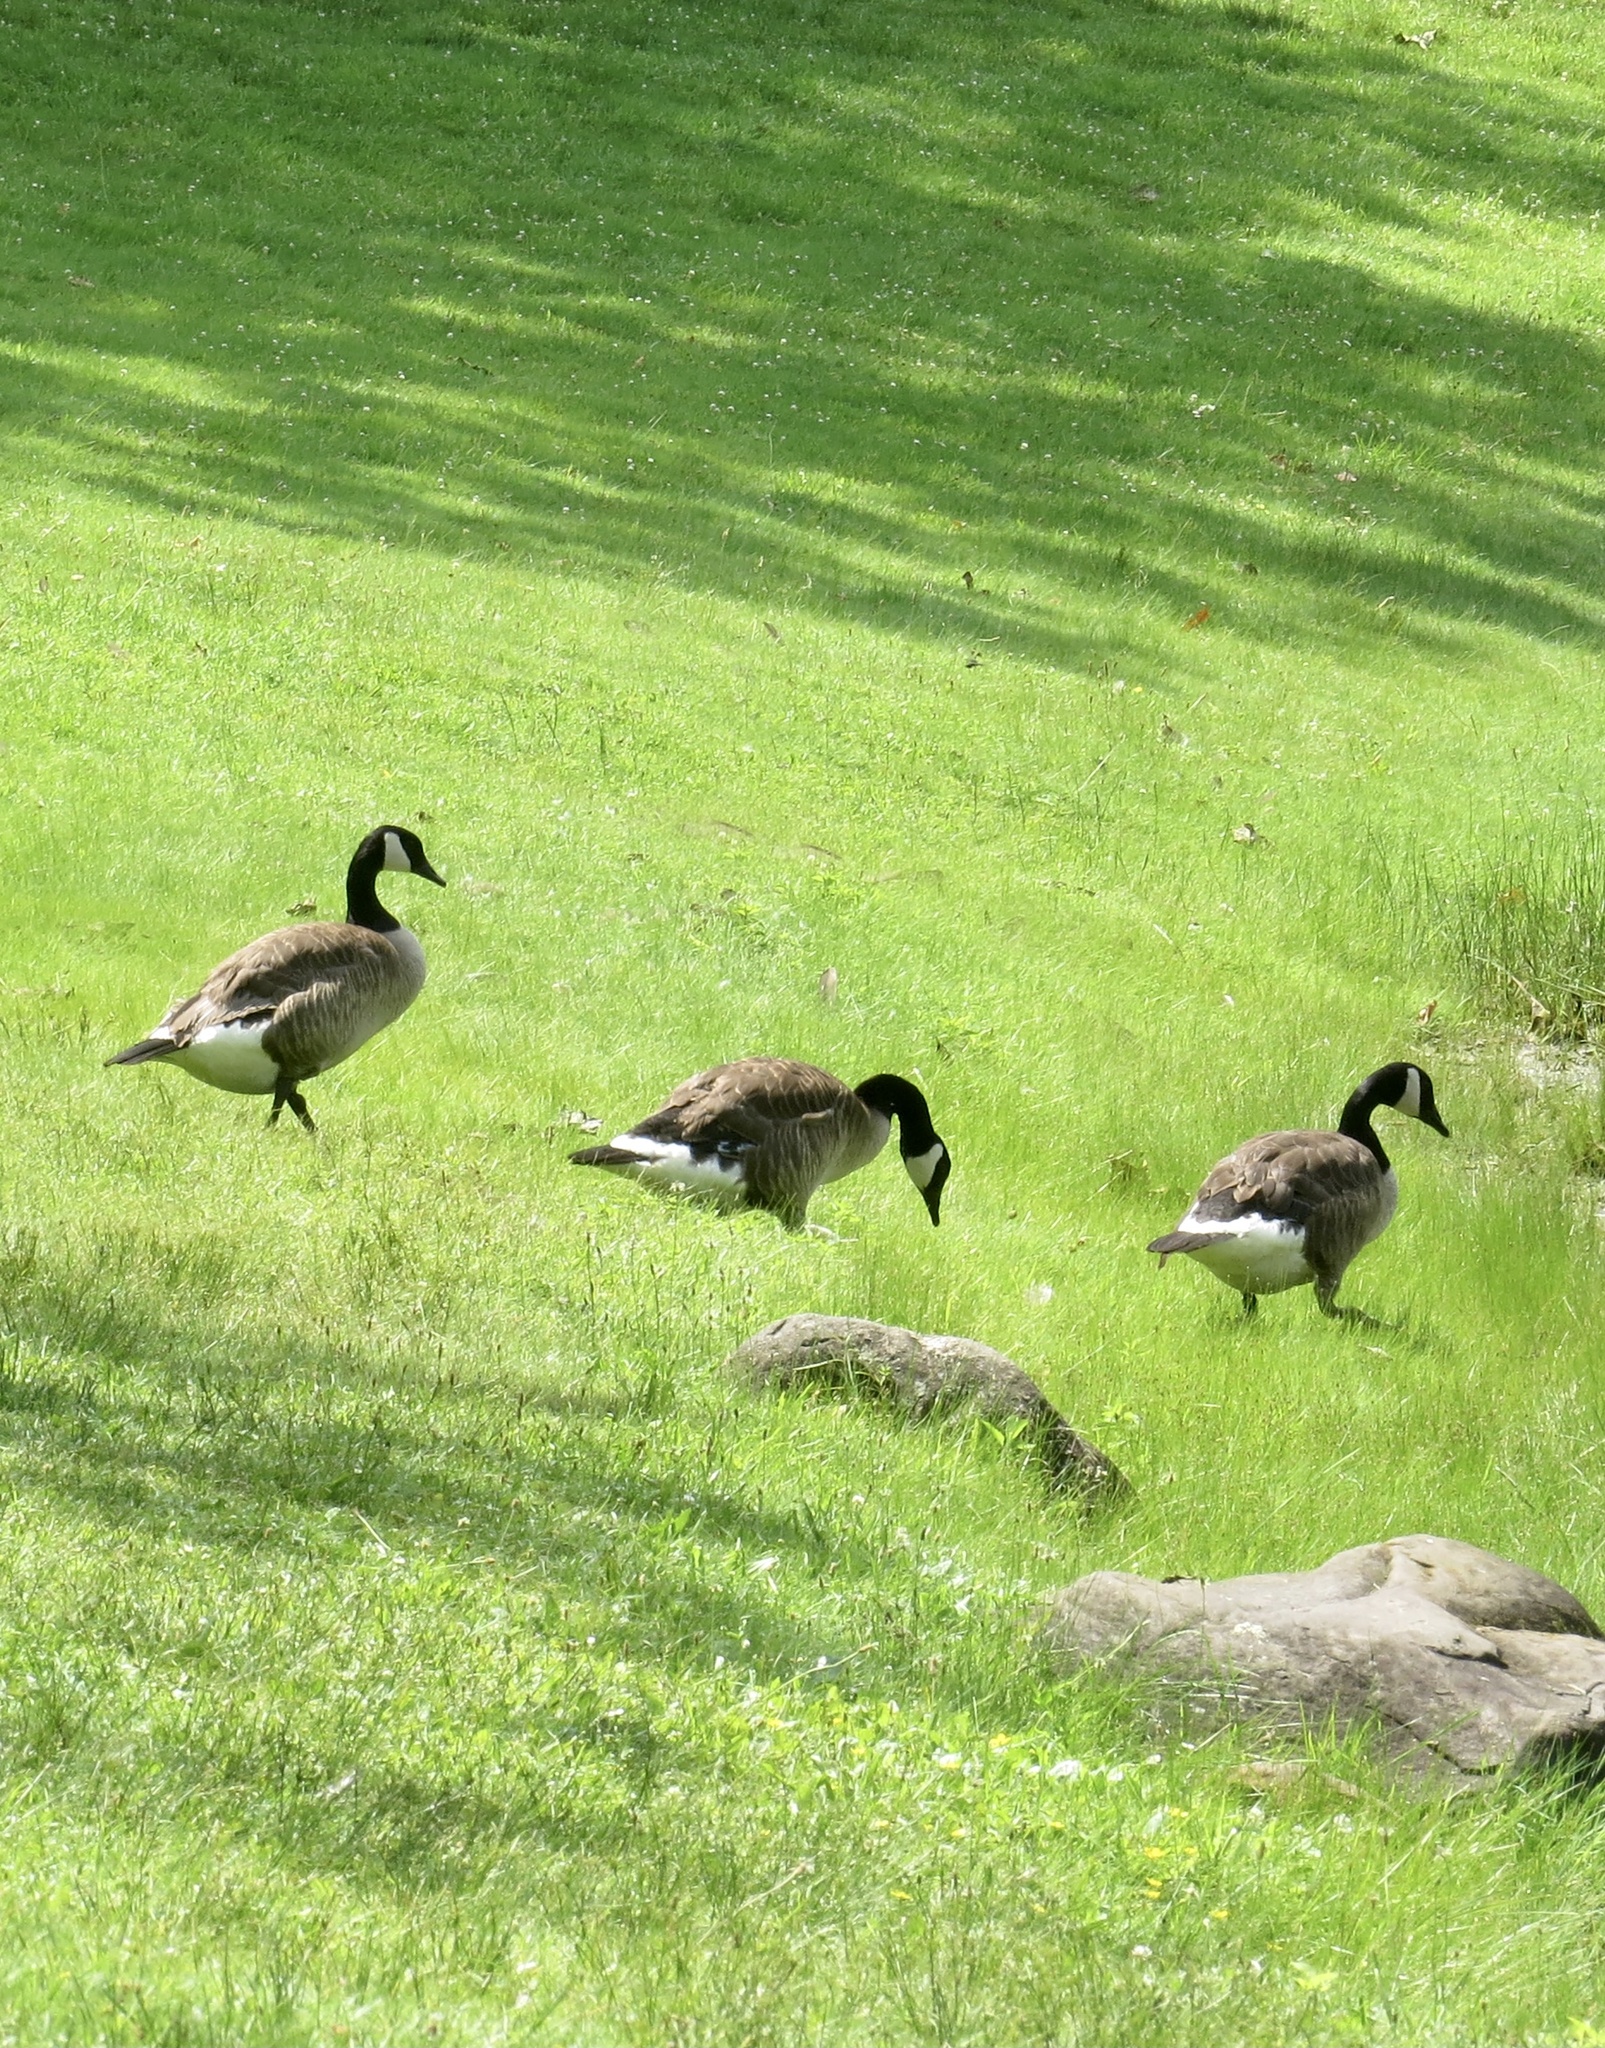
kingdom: Animalia
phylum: Chordata
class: Aves
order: Anseriformes
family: Anatidae
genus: Branta
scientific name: Branta canadensis
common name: Canada goose
